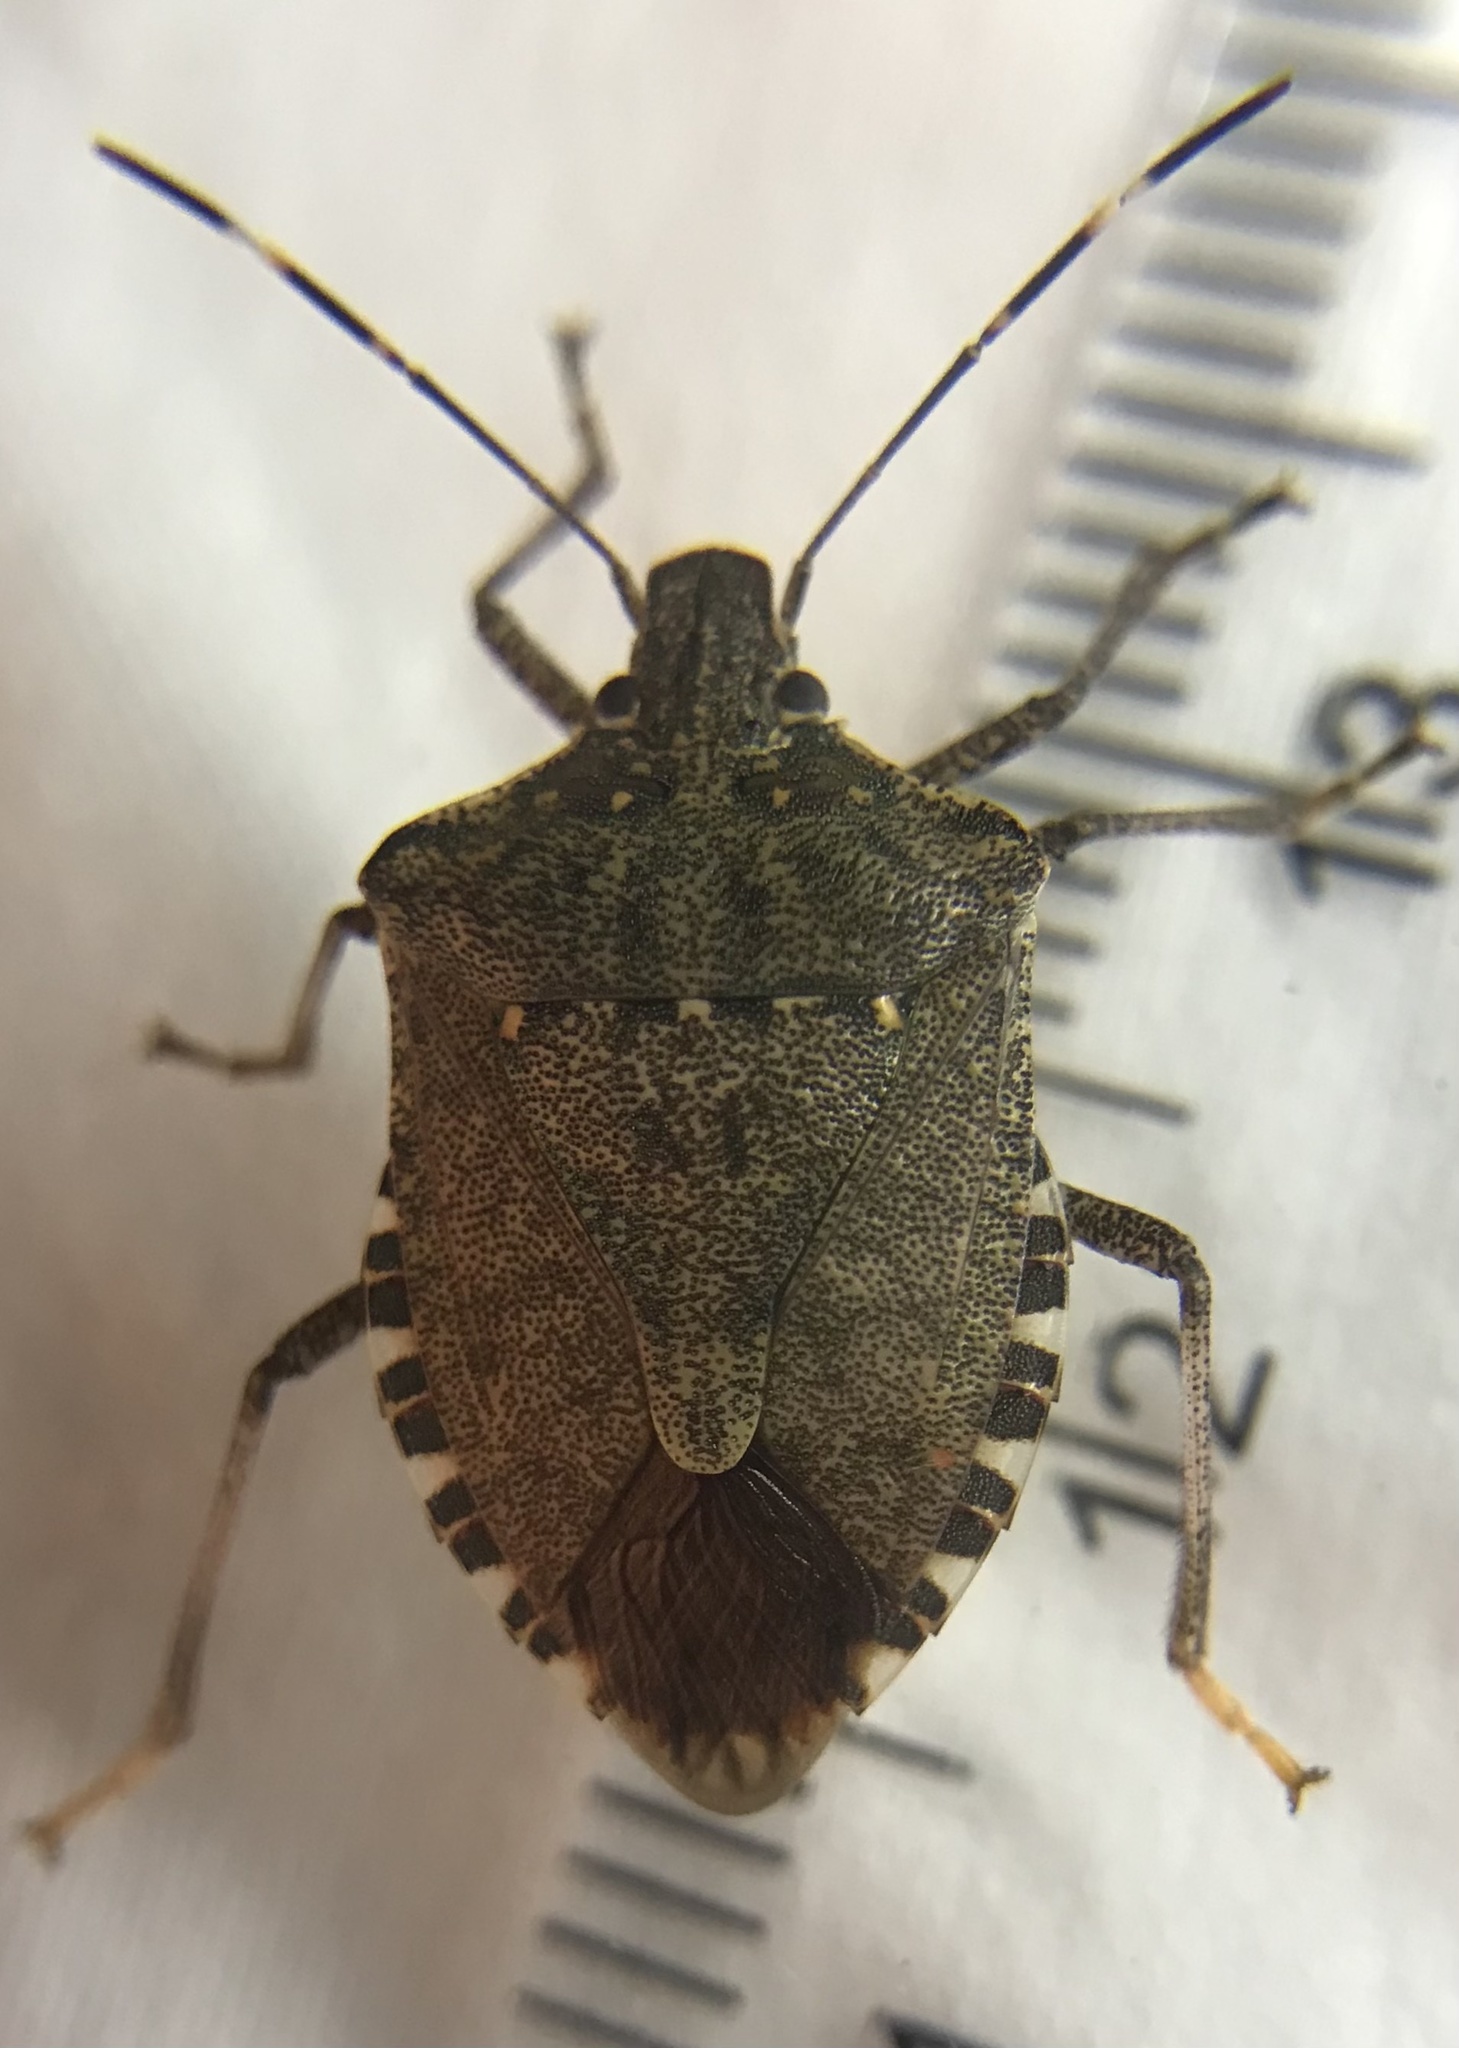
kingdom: Animalia
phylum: Arthropoda
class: Insecta
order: Hemiptera
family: Pentatomidae
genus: Halyomorpha
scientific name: Halyomorpha halys
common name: Brown marmorated stink bug
